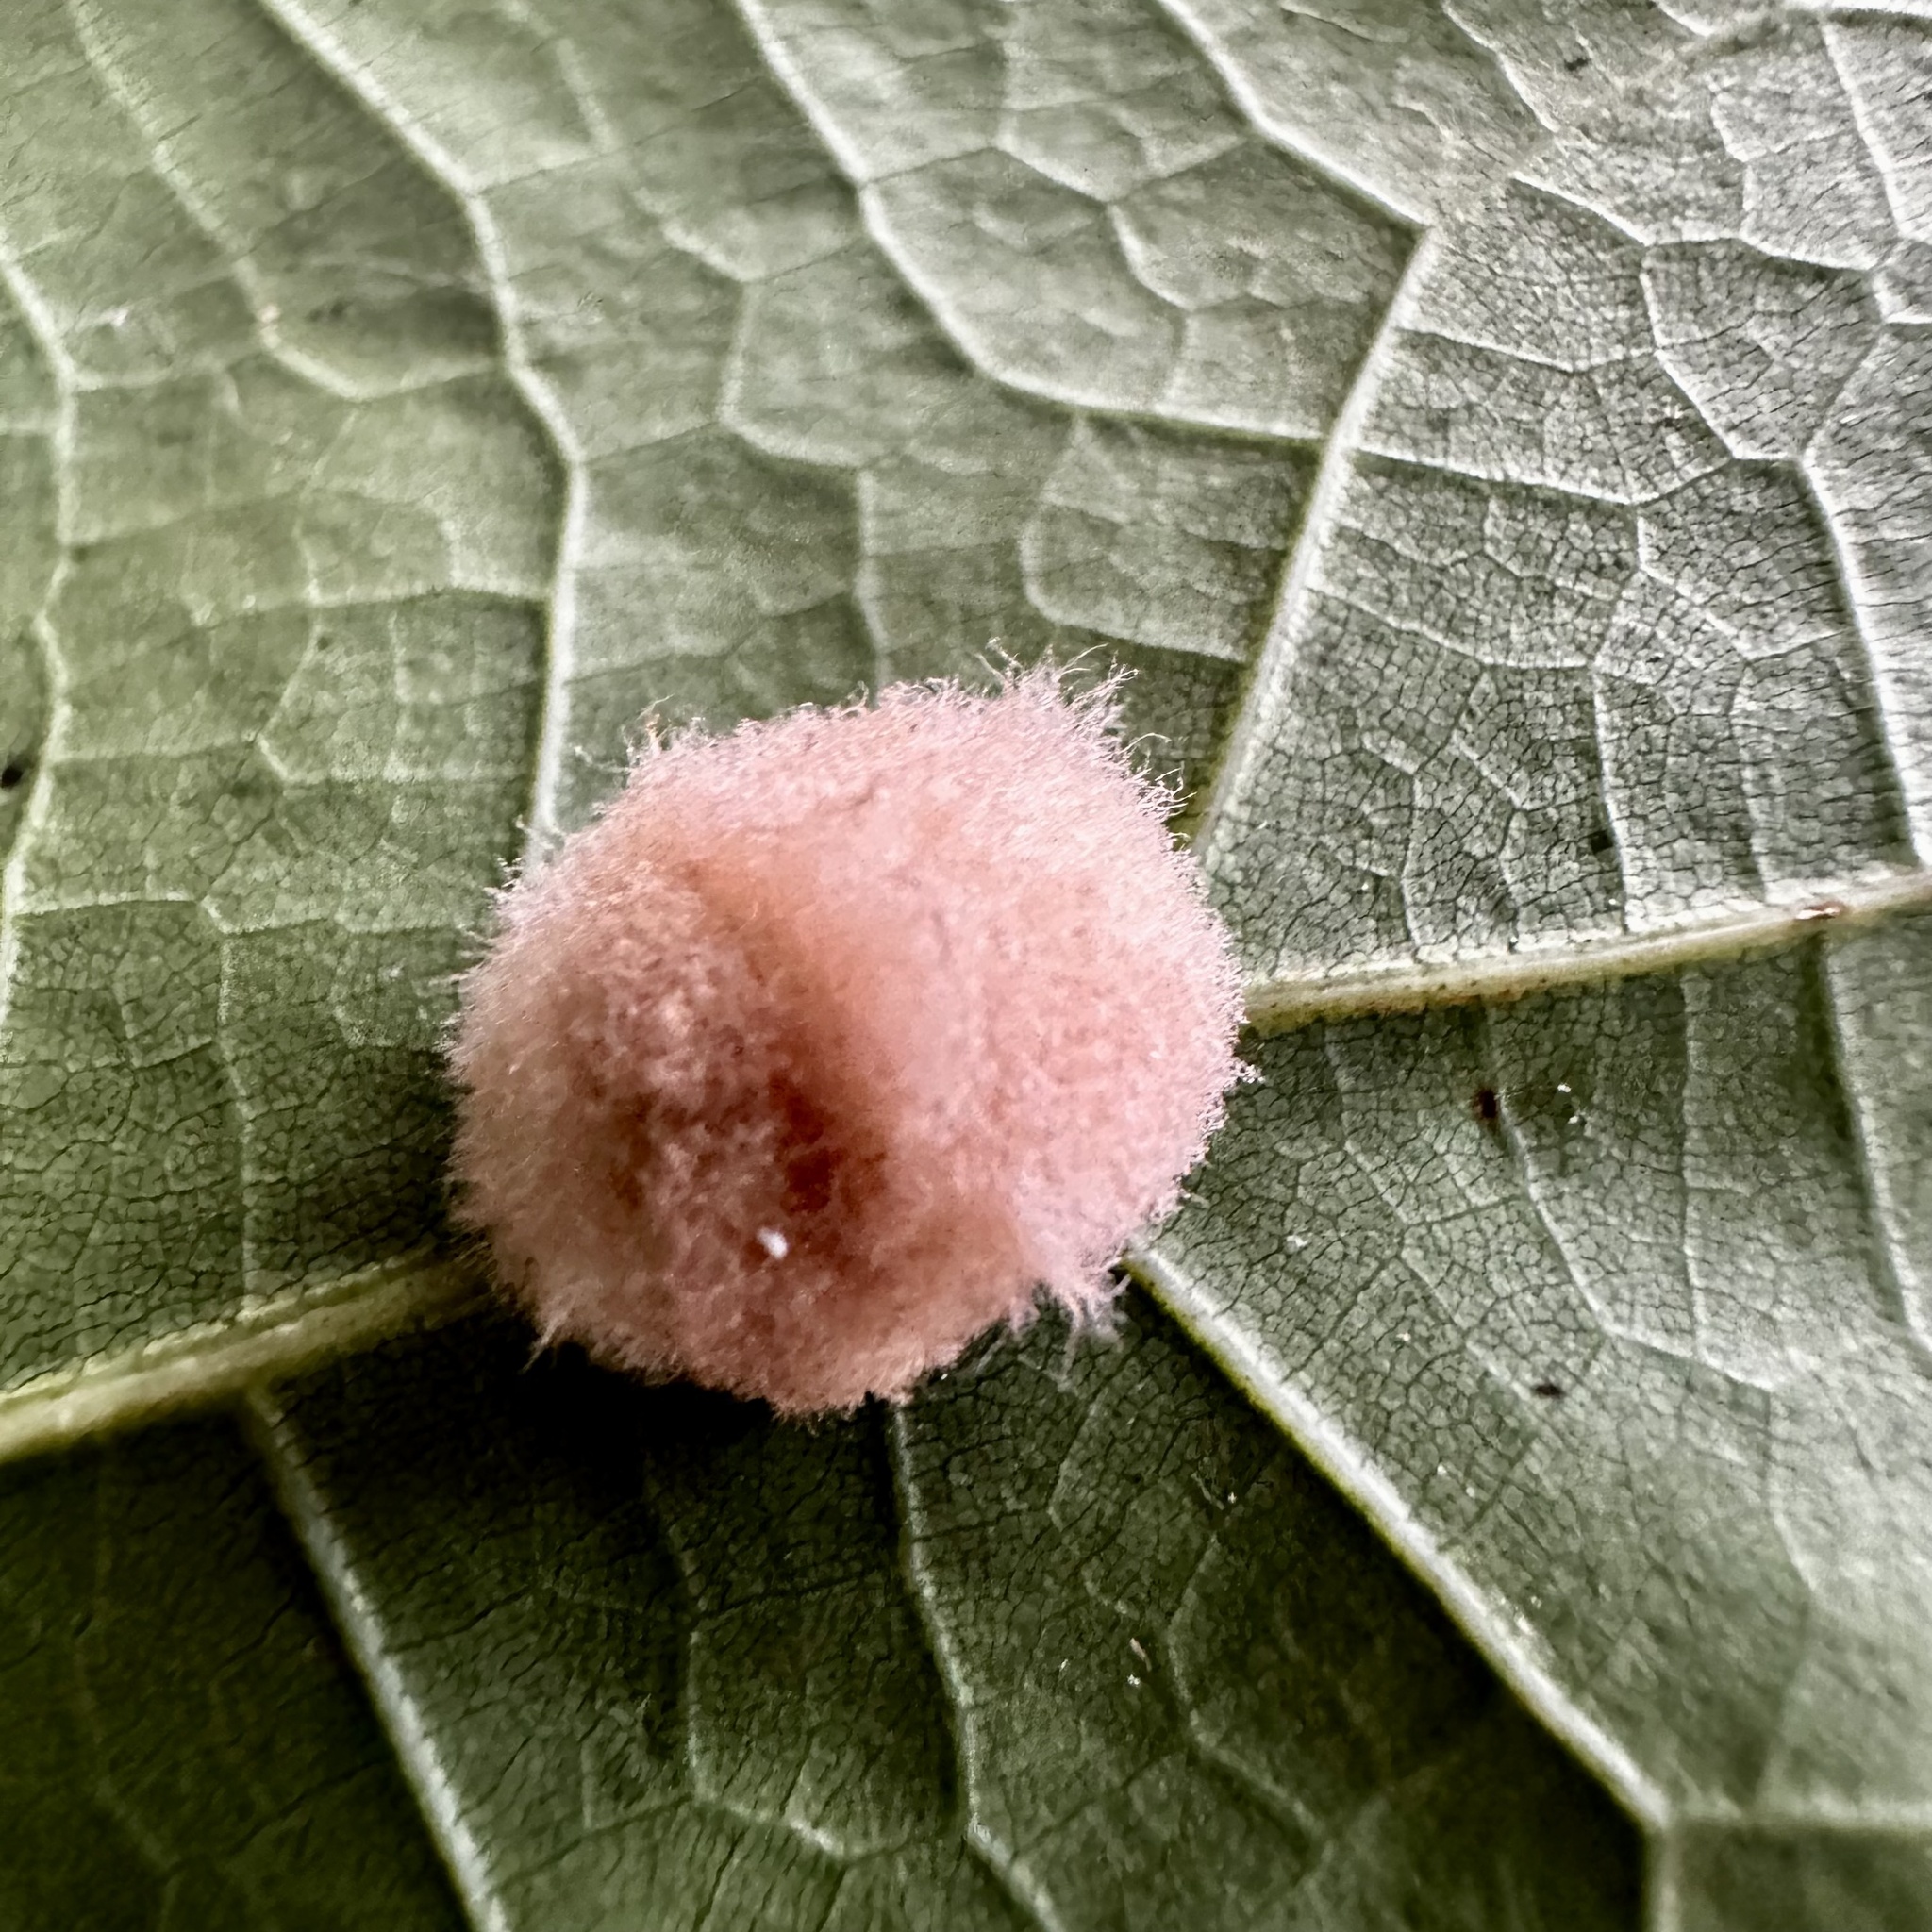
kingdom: Animalia
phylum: Arthropoda
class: Insecta
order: Hymenoptera
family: Cynipidae
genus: Callirhytis
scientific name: Callirhytis
